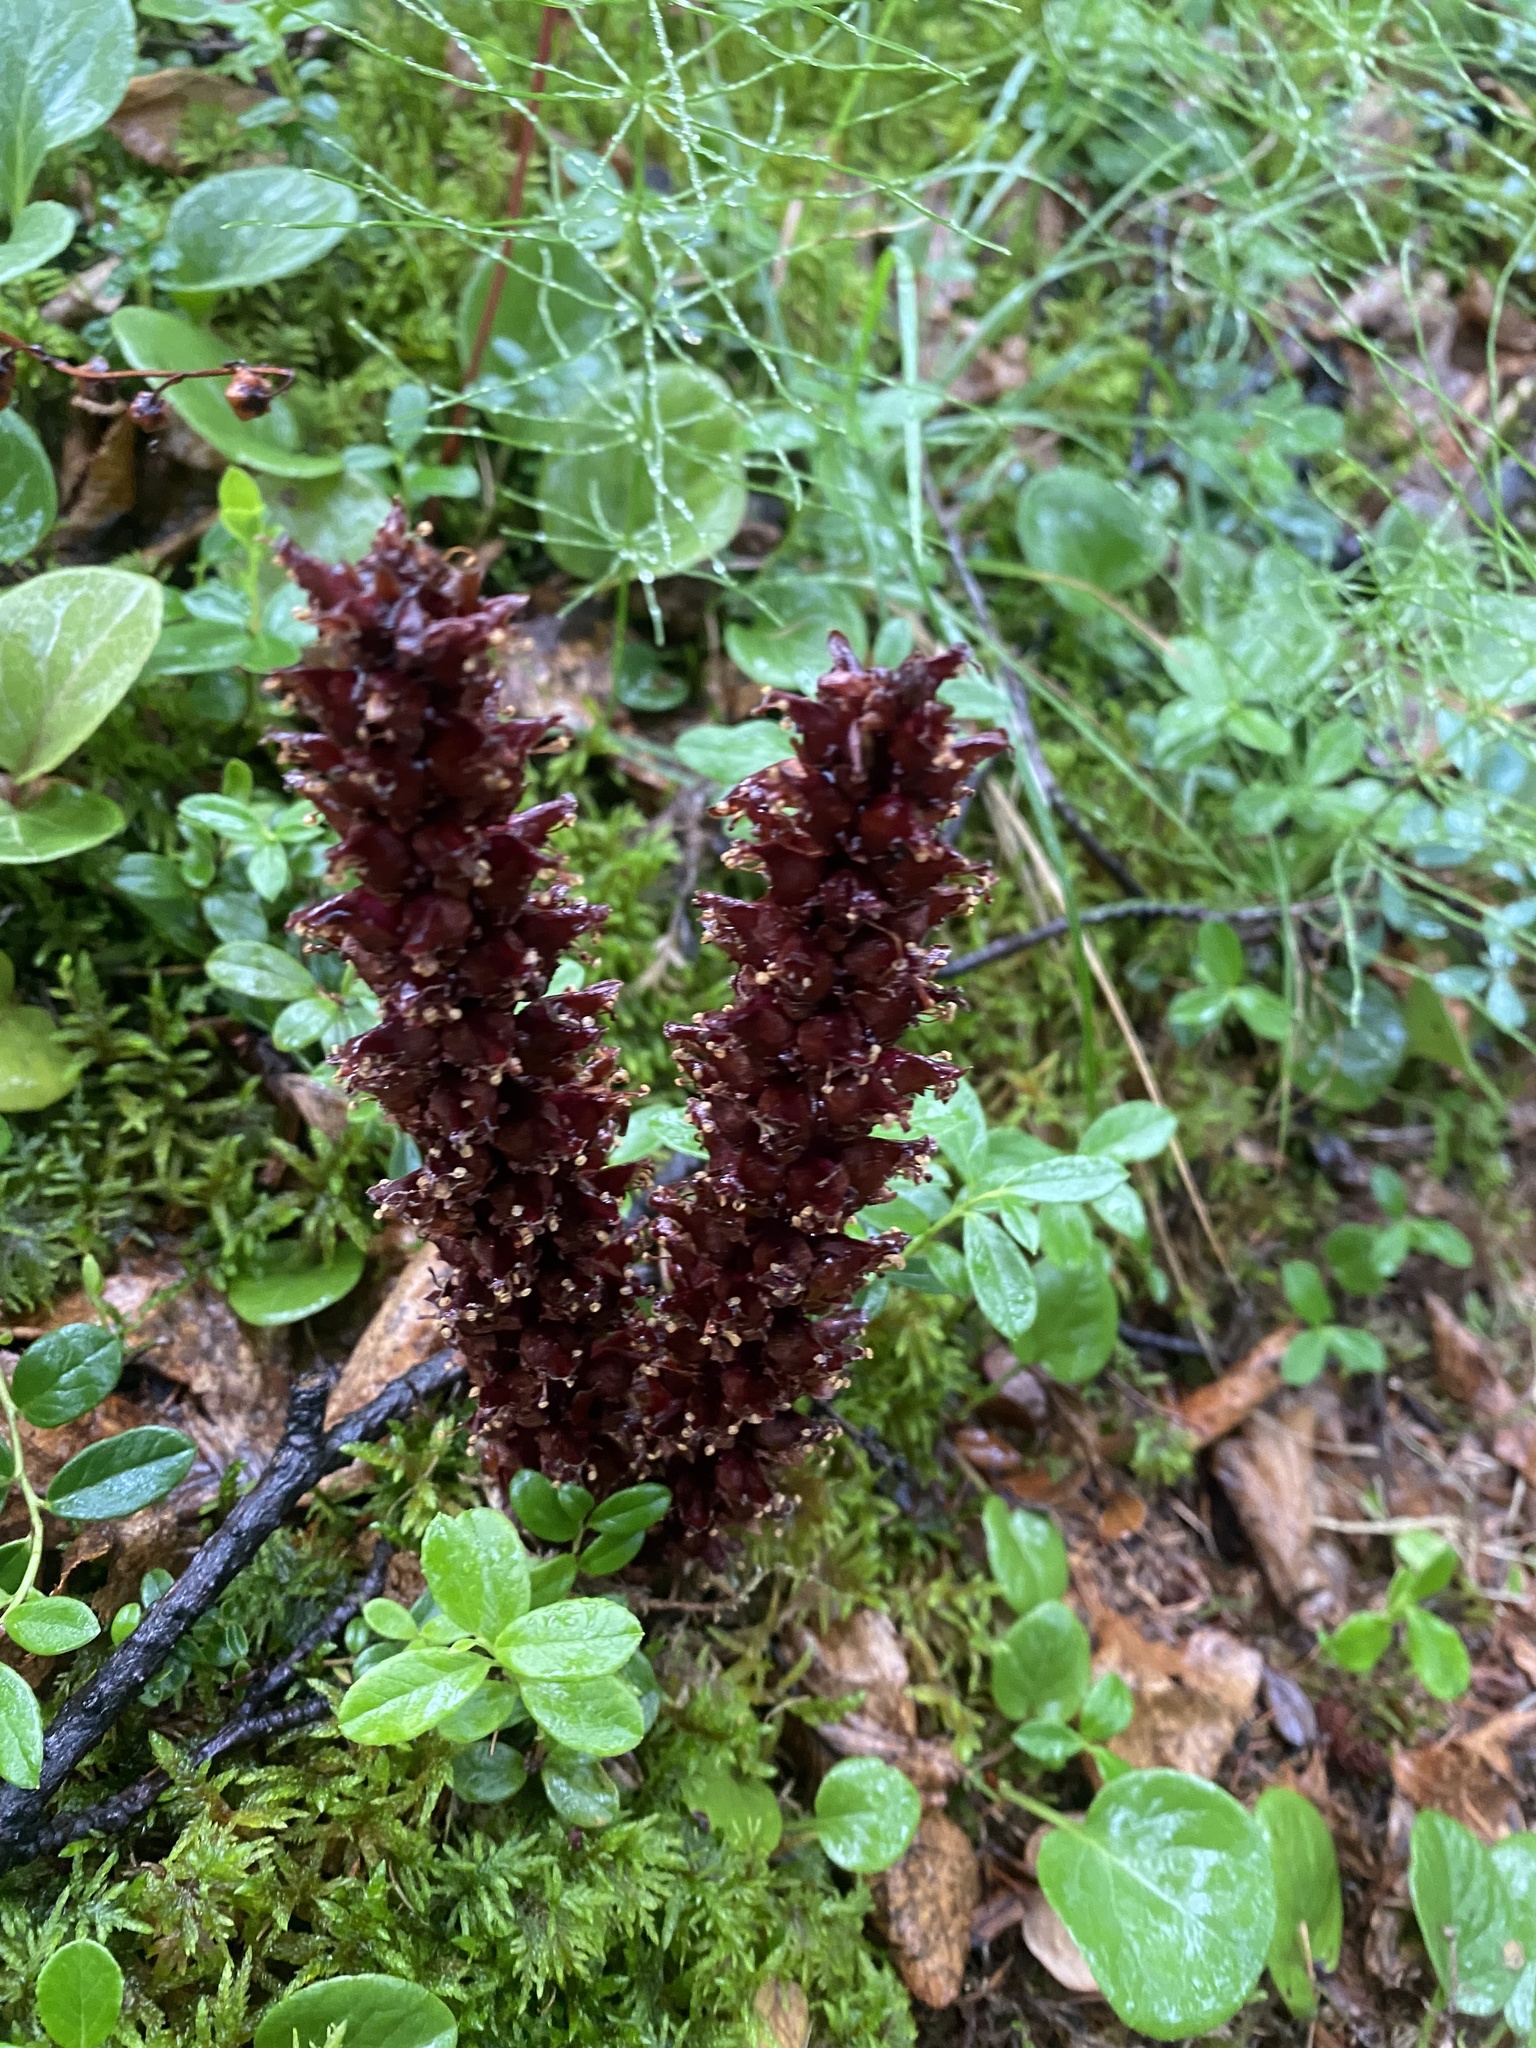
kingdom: Plantae
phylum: Tracheophyta
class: Magnoliopsida
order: Lamiales
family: Orobanchaceae
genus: Boschniakia
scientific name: Boschniakia rossica
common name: Poque
